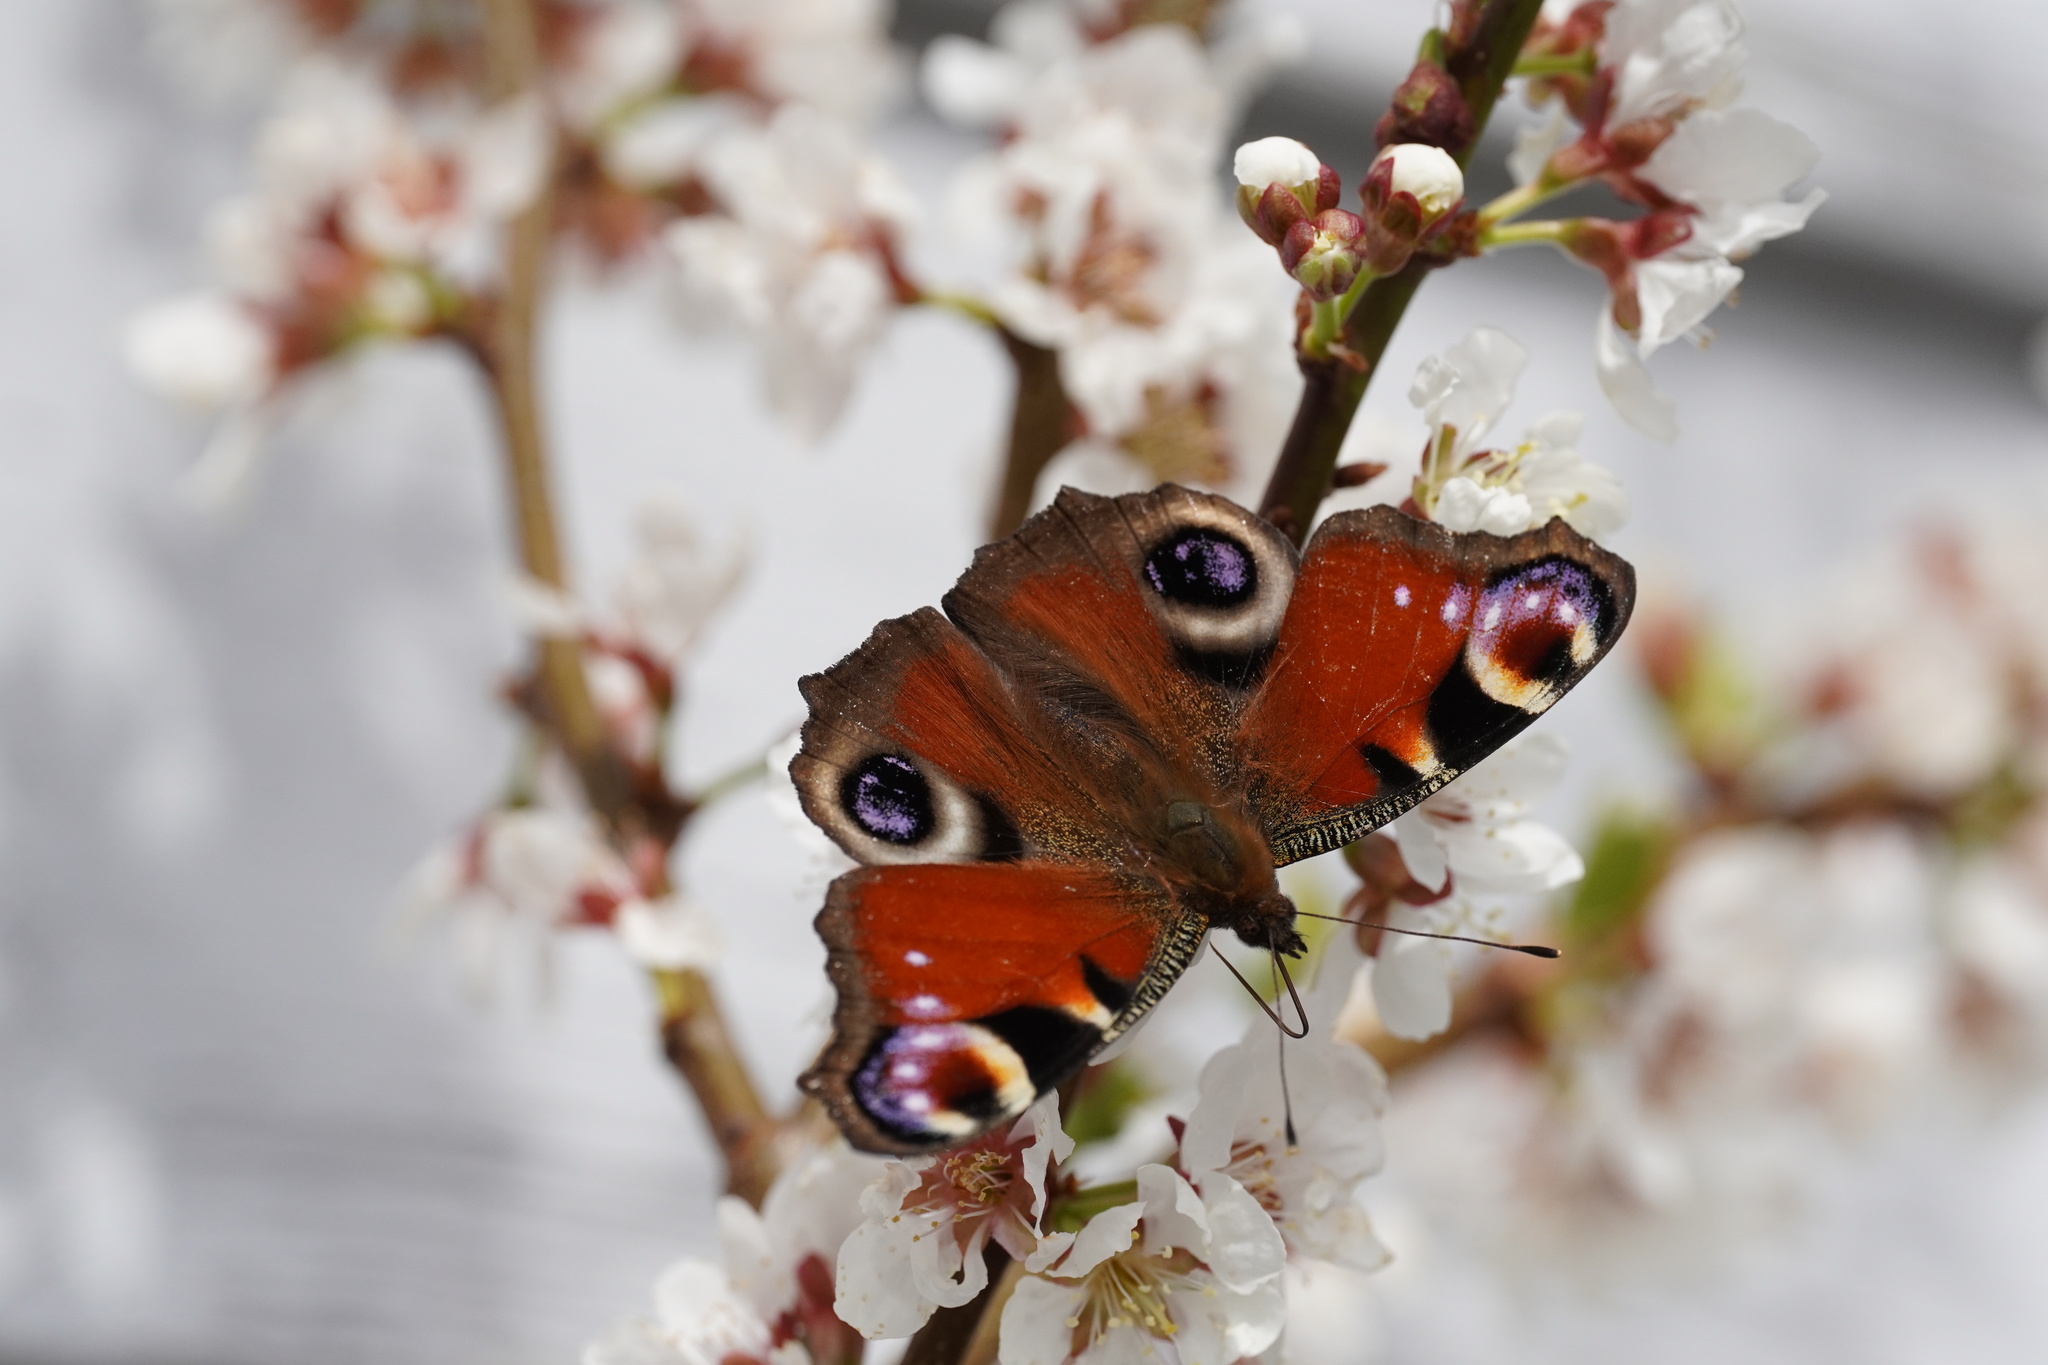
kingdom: Animalia
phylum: Arthropoda
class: Insecta
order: Lepidoptera
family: Nymphalidae
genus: Aglais
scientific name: Aglais io
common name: Peacock
